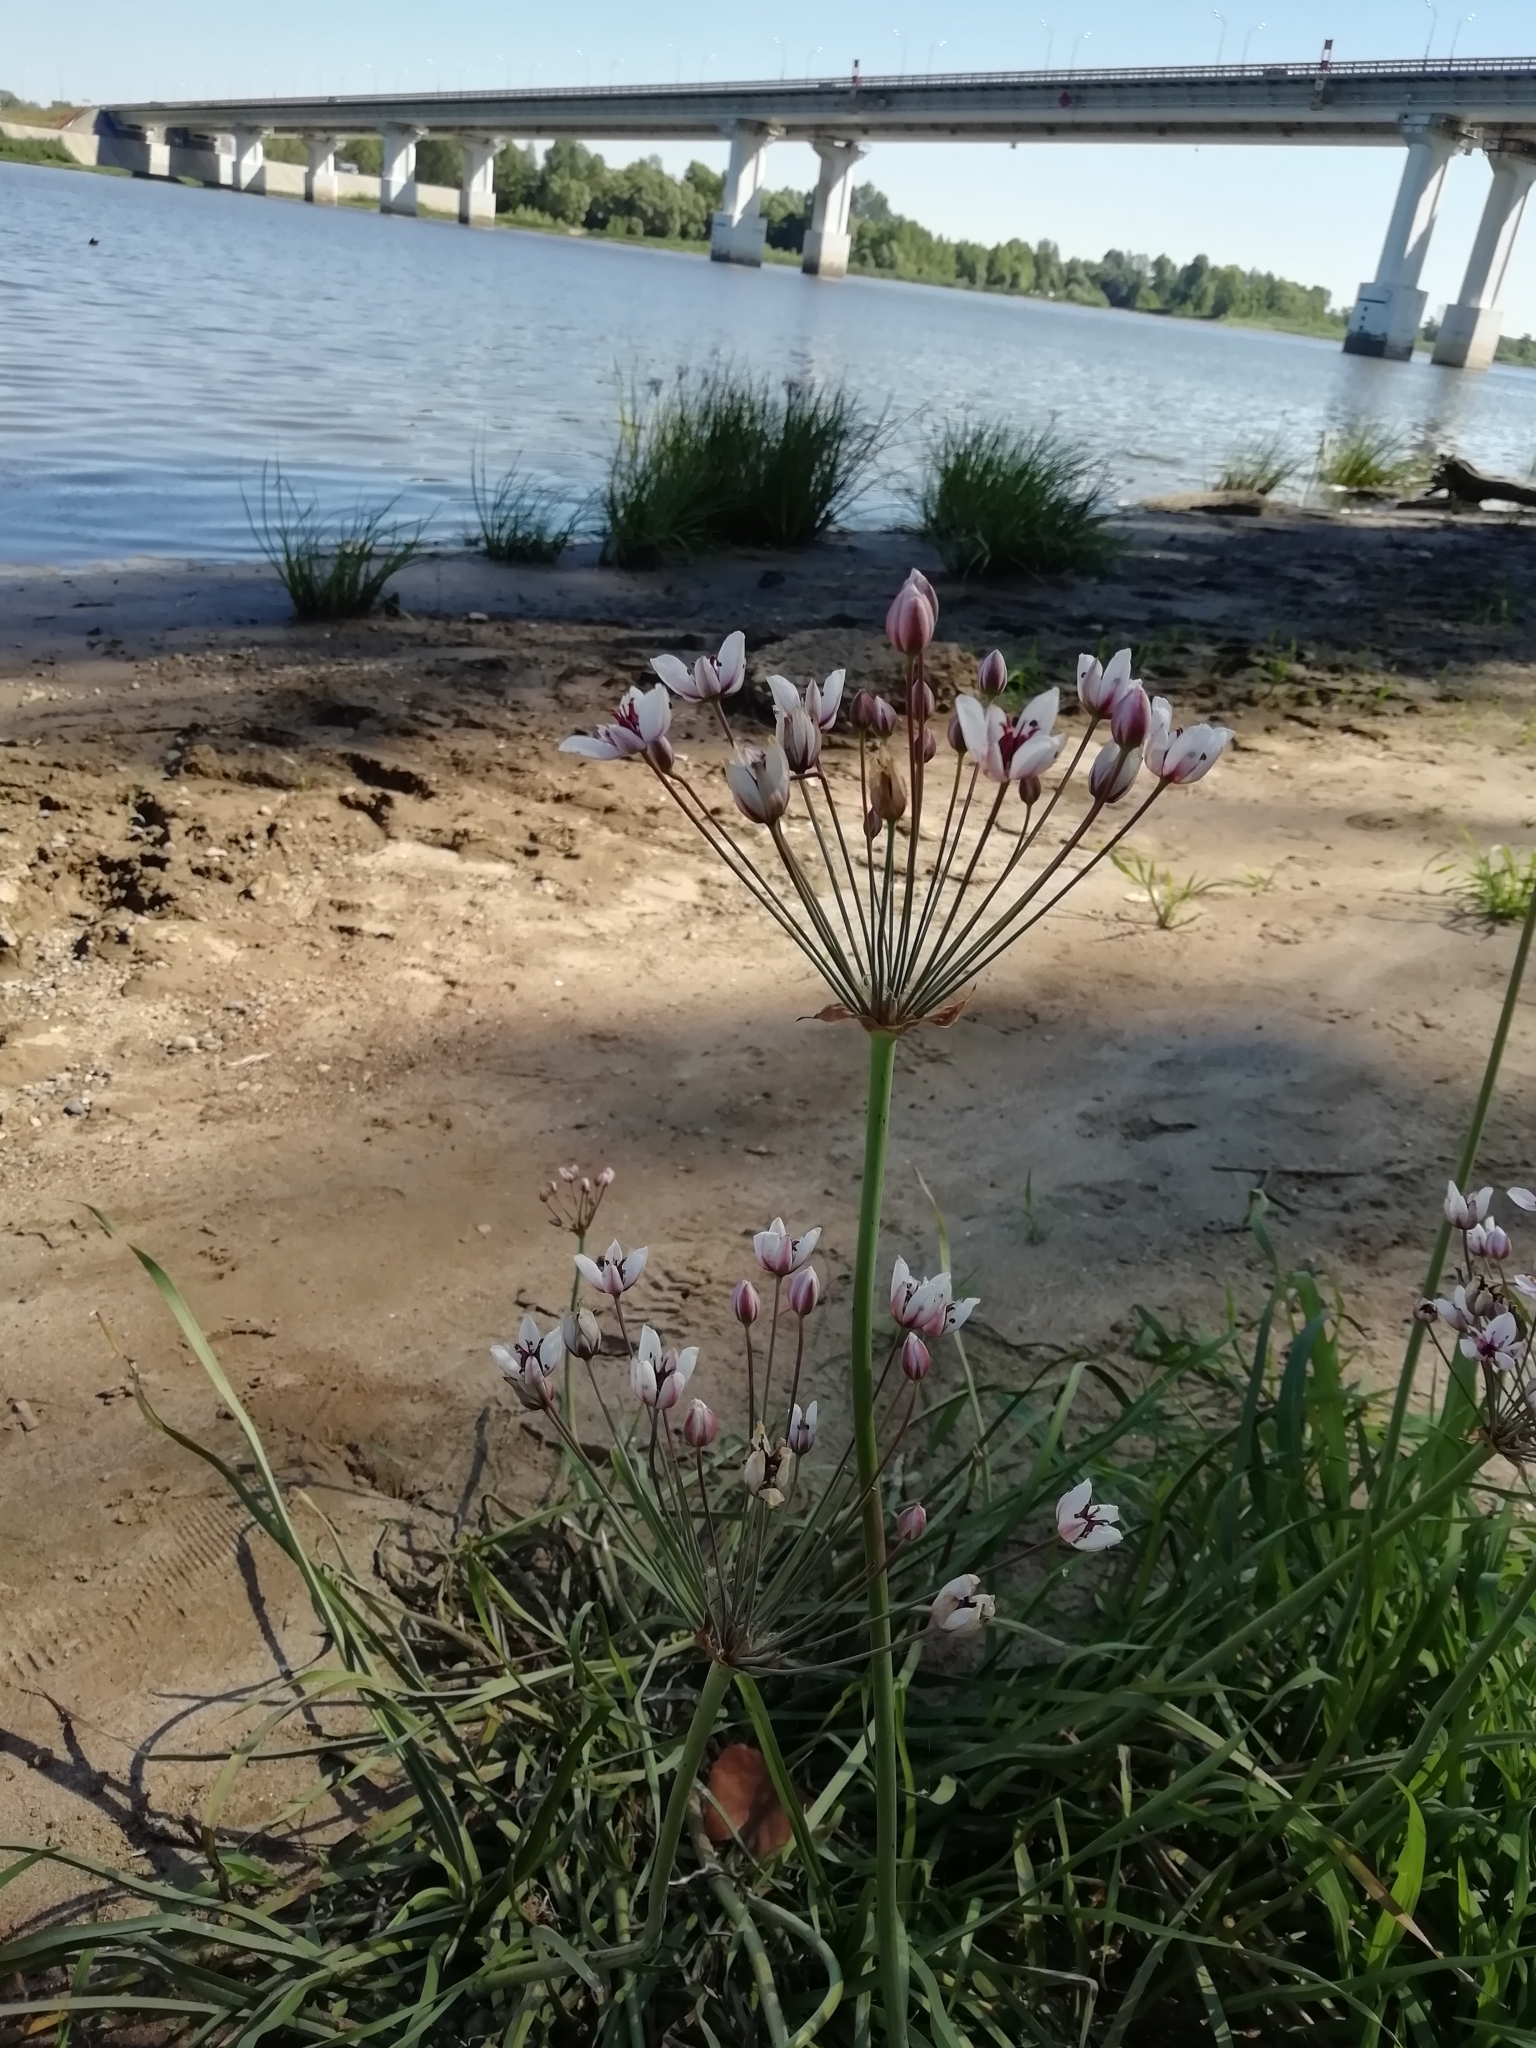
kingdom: Plantae
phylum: Tracheophyta
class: Liliopsida
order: Alismatales
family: Butomaceae
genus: Butomus
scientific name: Butomus umbellatus
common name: Flowering-rush
